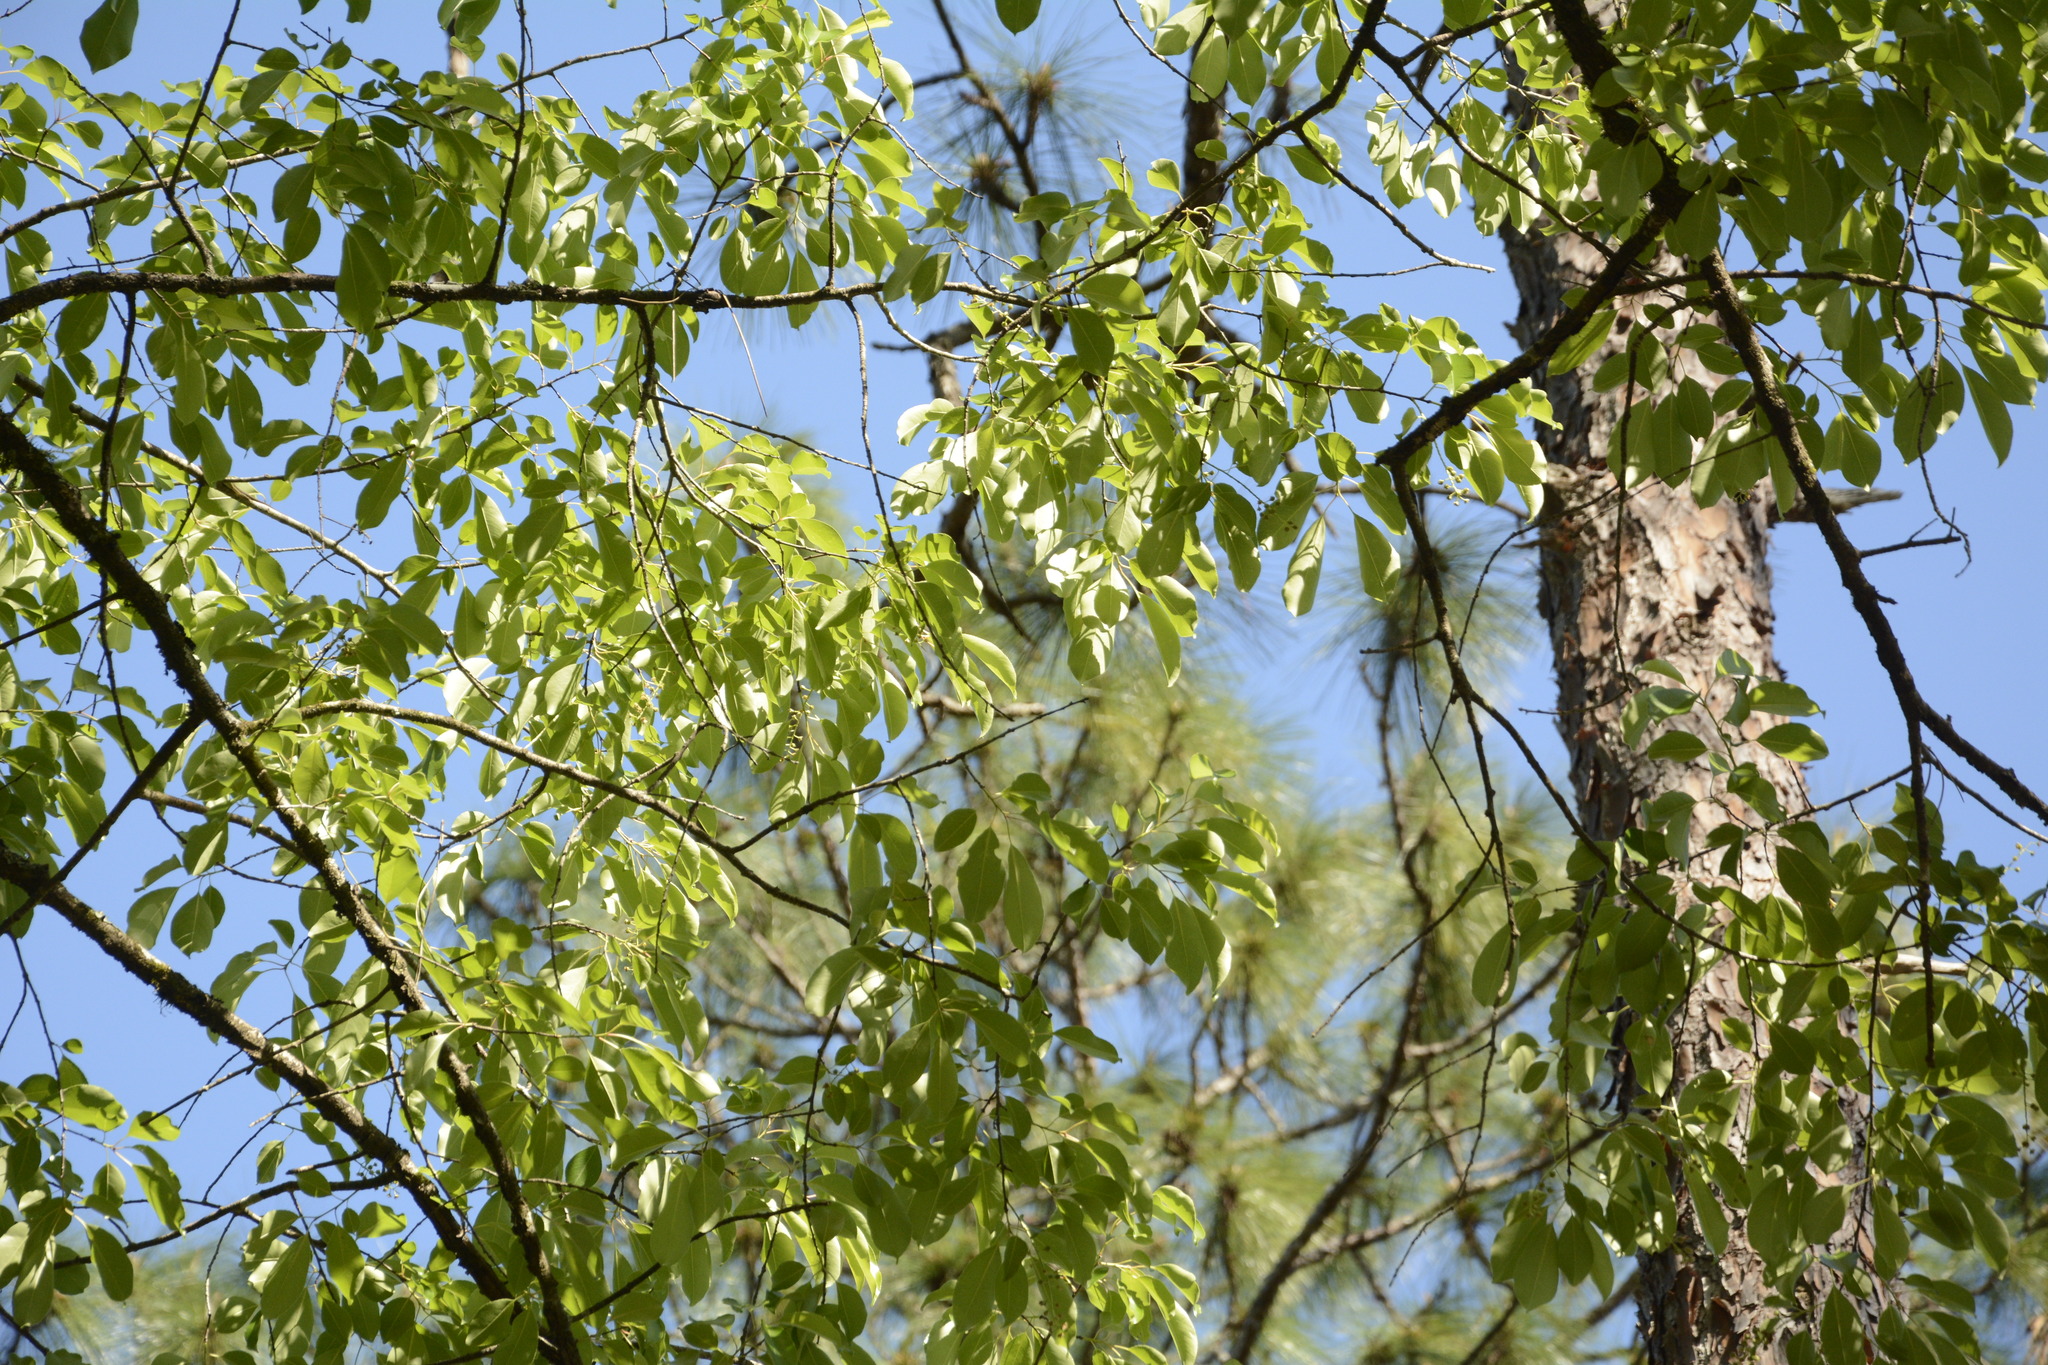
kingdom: Plantae
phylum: Tracheophyta
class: Magnoliopsida
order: Rosales
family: Rosaceae
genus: Prunus
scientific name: Prunus serotina
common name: Black cherry
